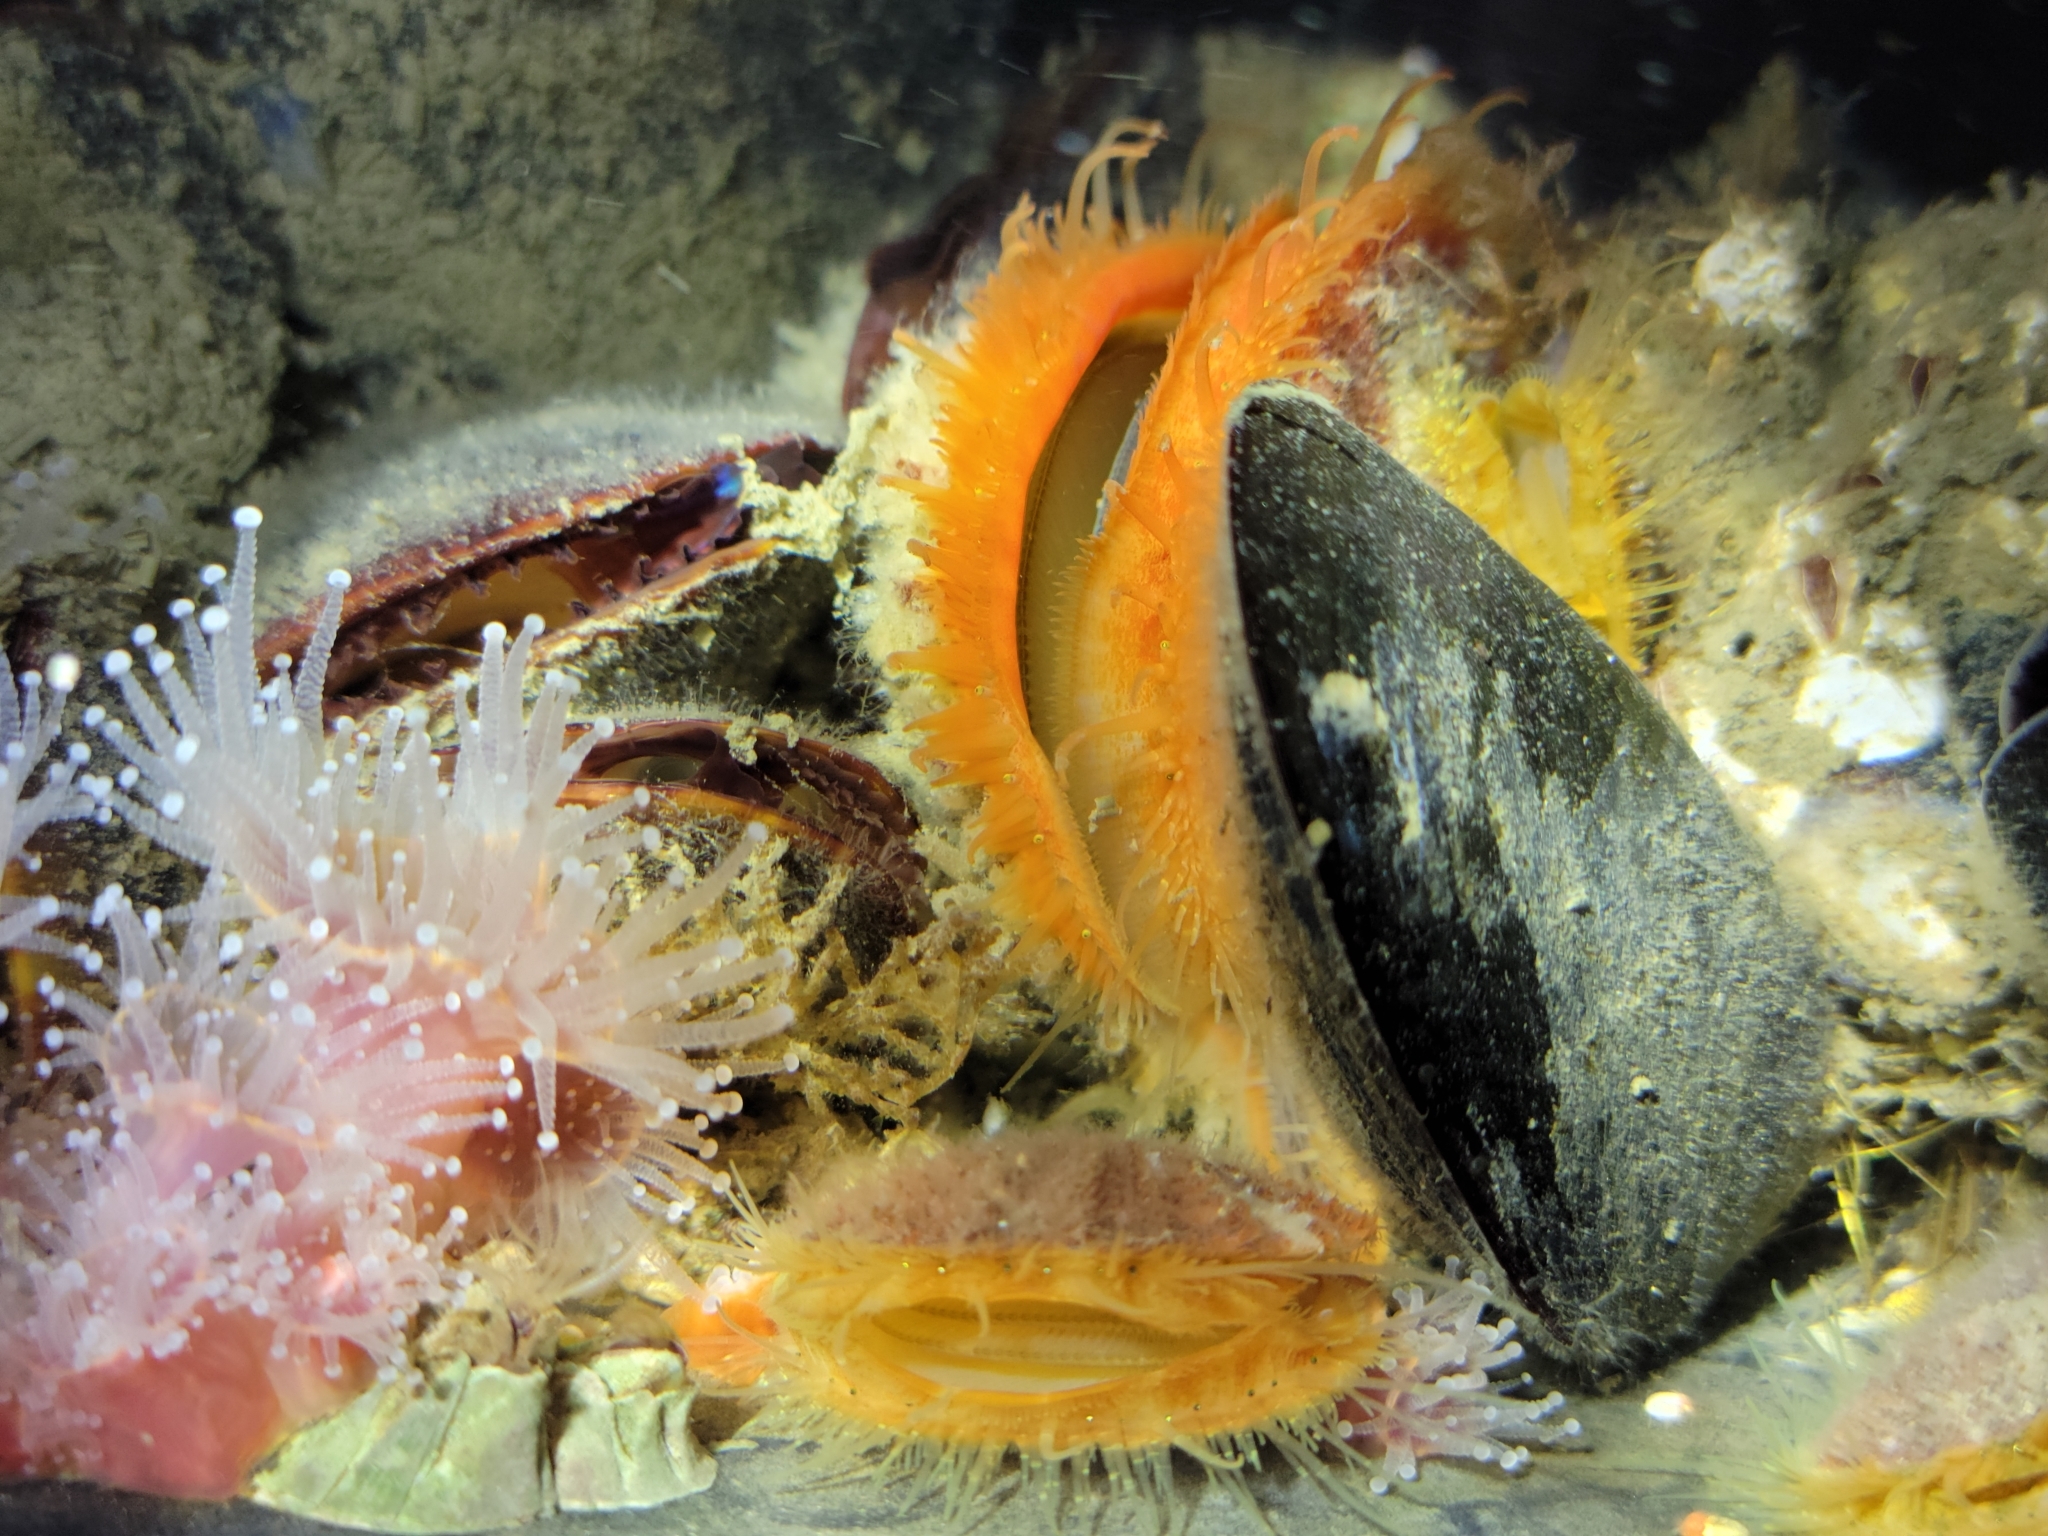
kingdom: Animalia
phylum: Mollusca
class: Bivalvia
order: Pectinida
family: Pectinidae
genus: Crassadoma
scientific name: Crassadoma gigantea
